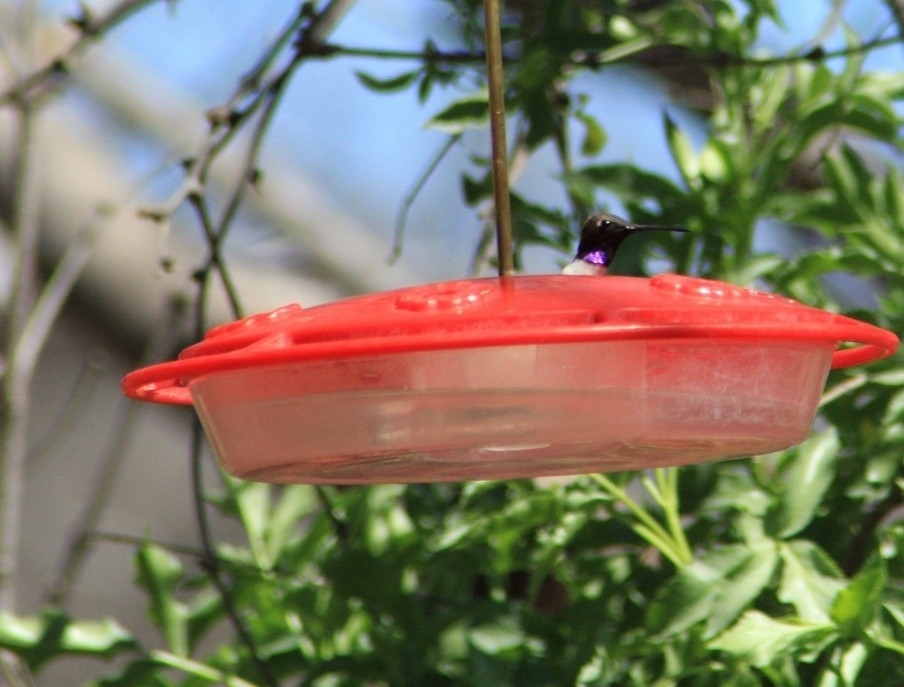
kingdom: Animalia
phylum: Chordata
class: Aves
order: Apodiformes
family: Trochilidae
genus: Archilochus
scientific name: Archilochus alexandri
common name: Black-chinned hummingbird
